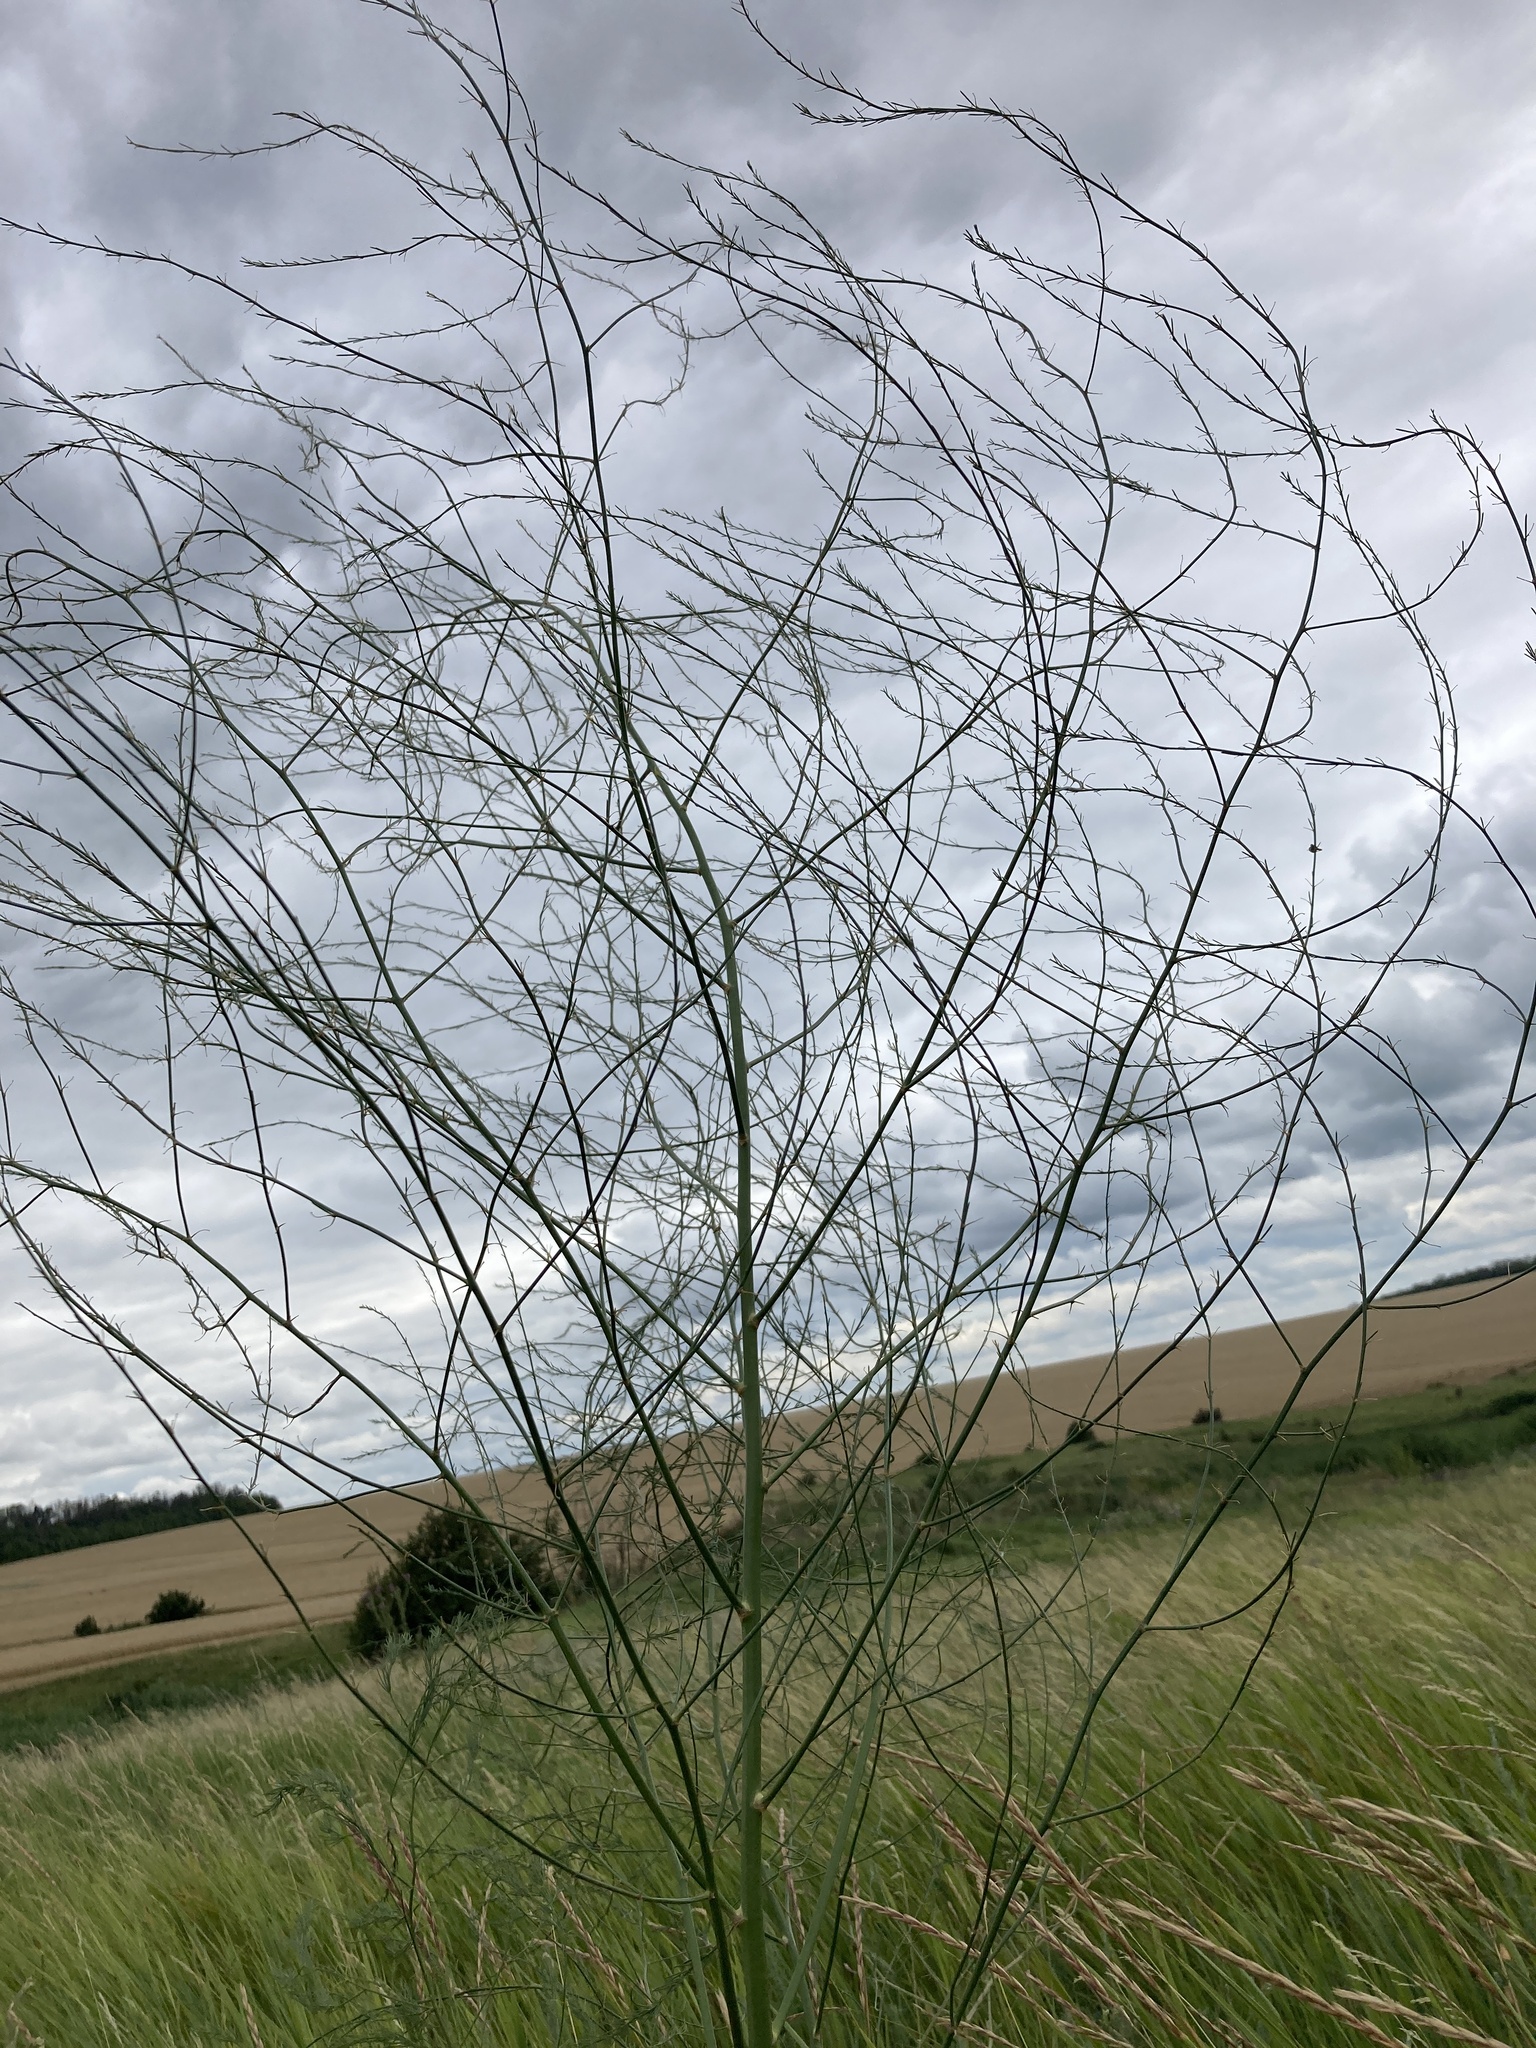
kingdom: Plantae
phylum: Tracheophyta
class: Liliopsida
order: Asparagales
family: Asparagaceae
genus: Asparagus
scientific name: Asparagus officinalis
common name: Garden asparagus
